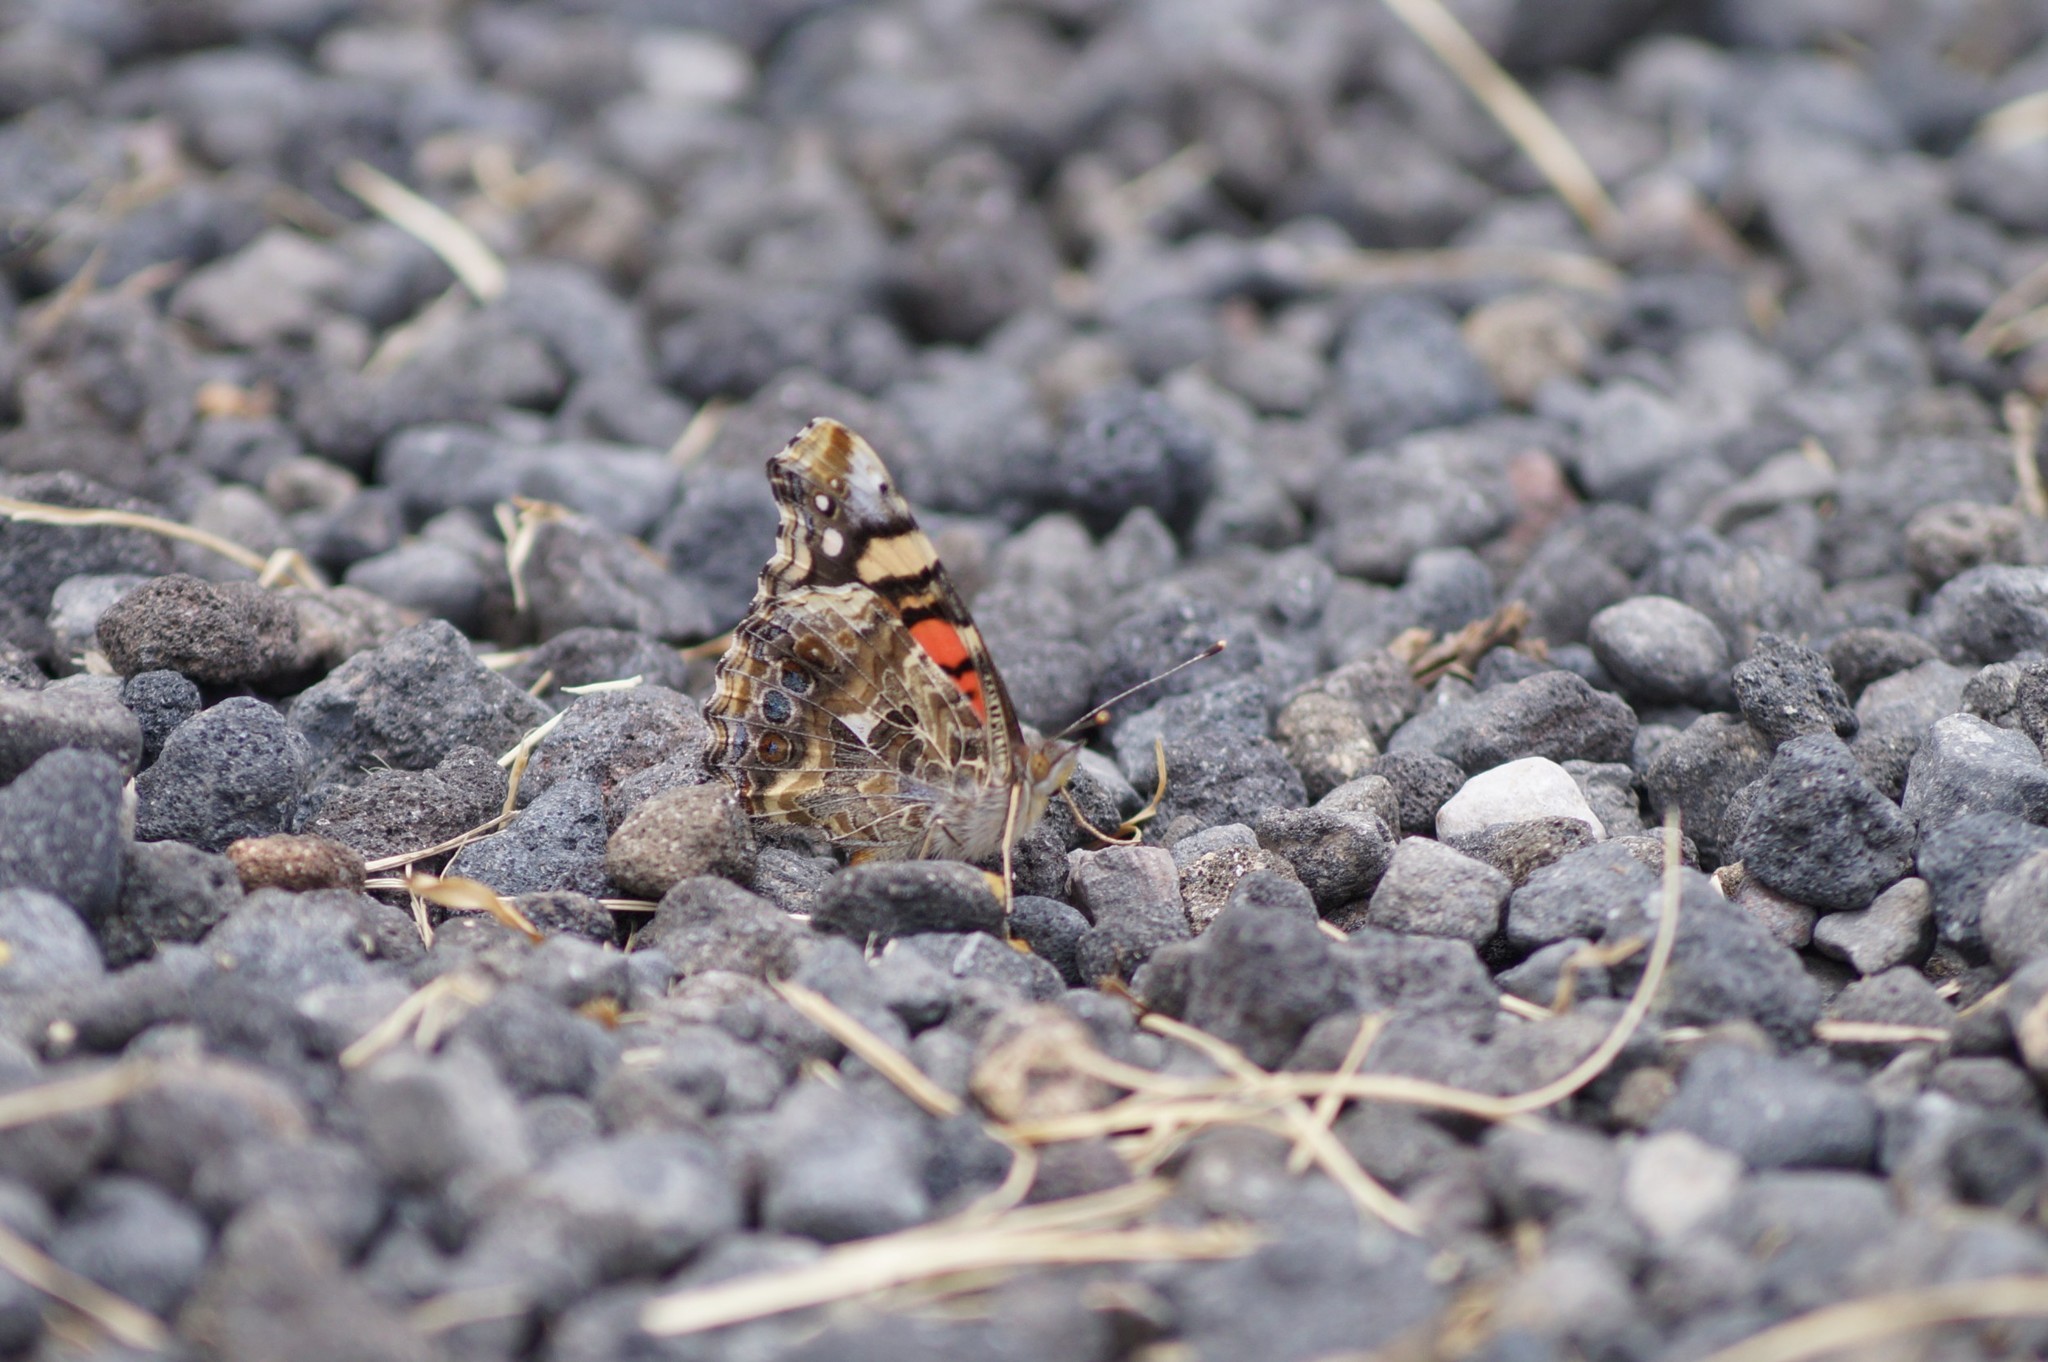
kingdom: Animalia
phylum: Arthropoda
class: Insecta
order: Lepidoptera
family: Nymphalidae
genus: Vanessa
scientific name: Vanessa annabella
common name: West coast lady
